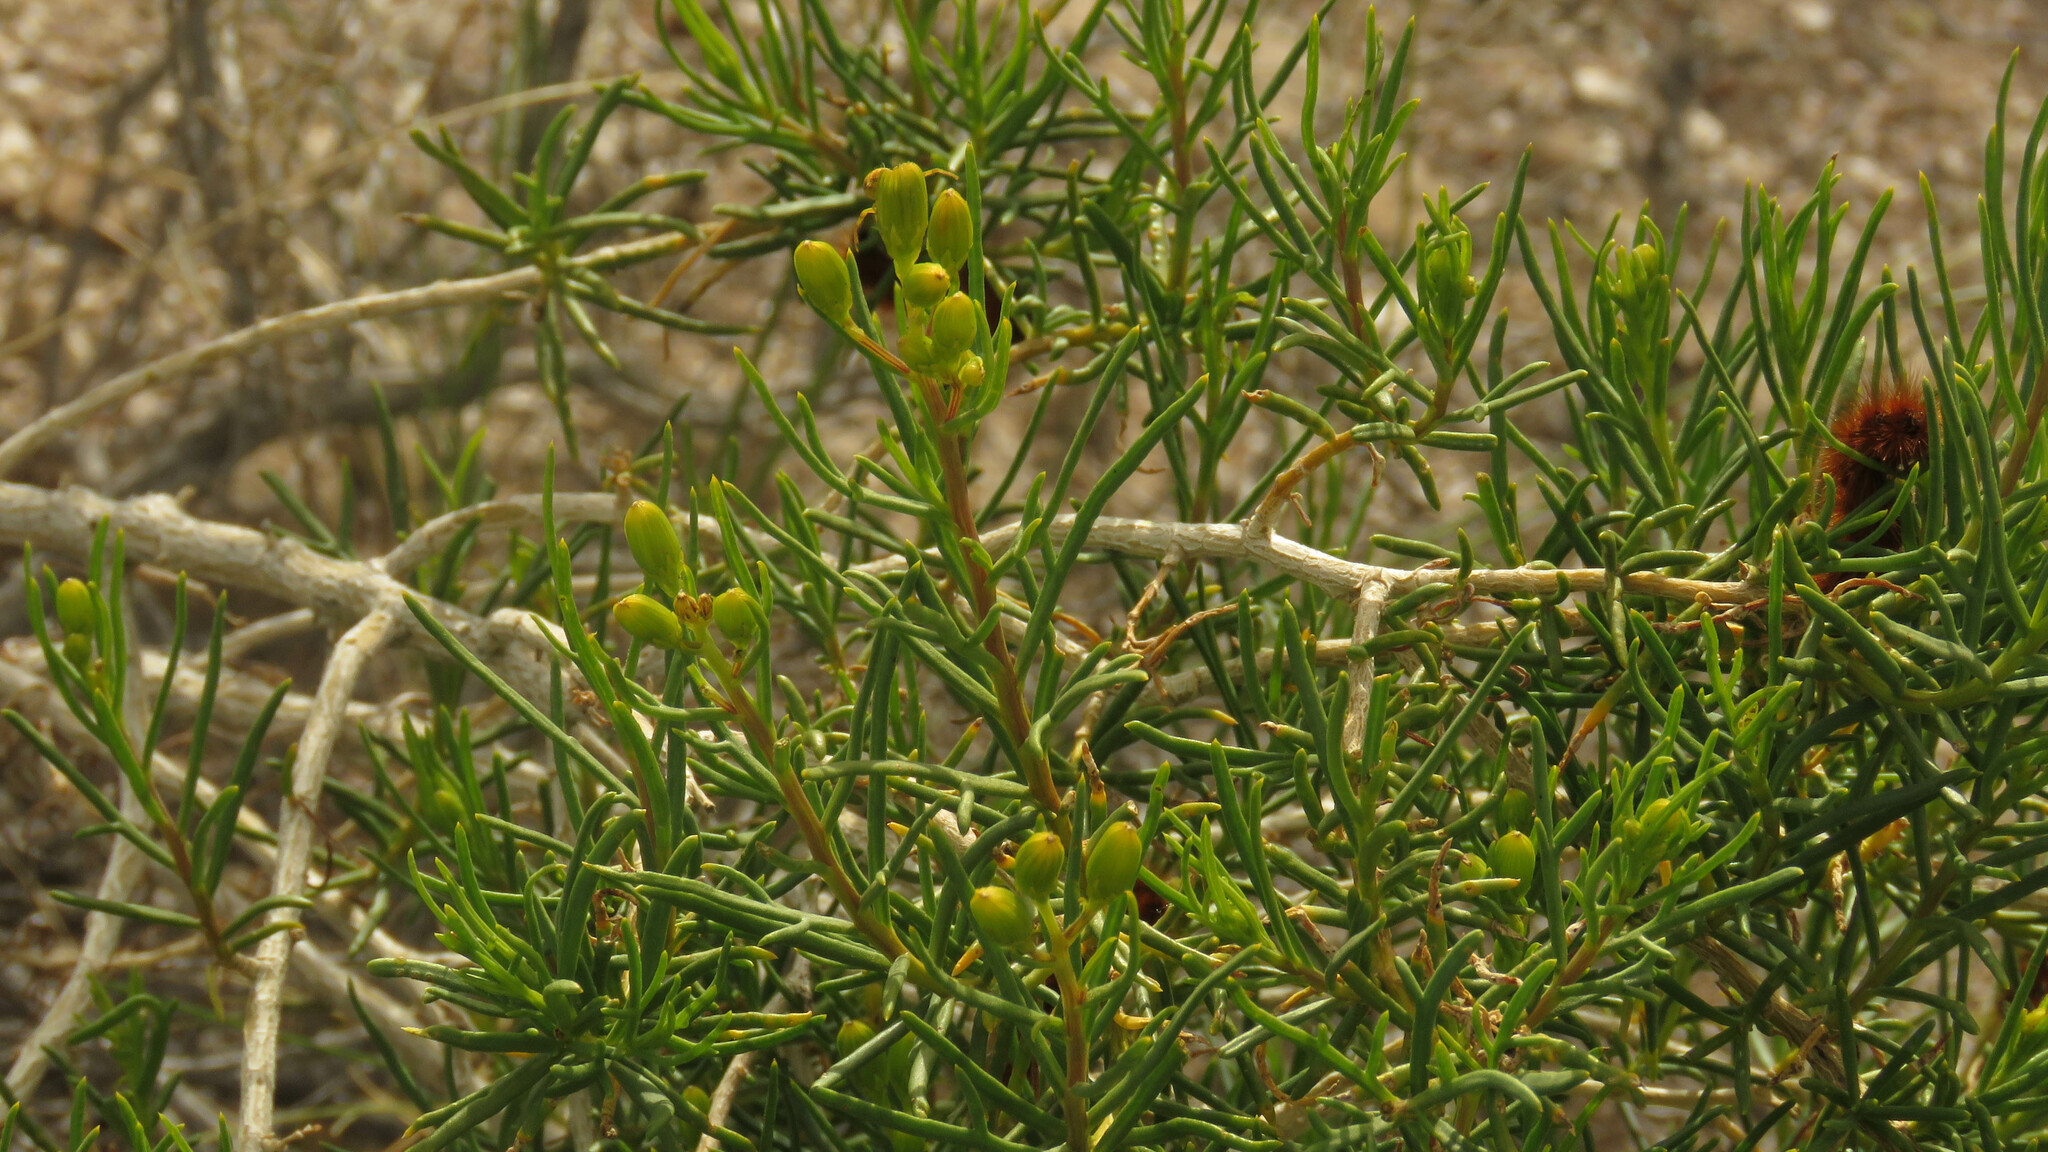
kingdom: Plantae
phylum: Tracheophyta
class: Magnoliopsida
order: Asterales
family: Asteraceae
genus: Senecio
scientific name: Senecio subulatus
